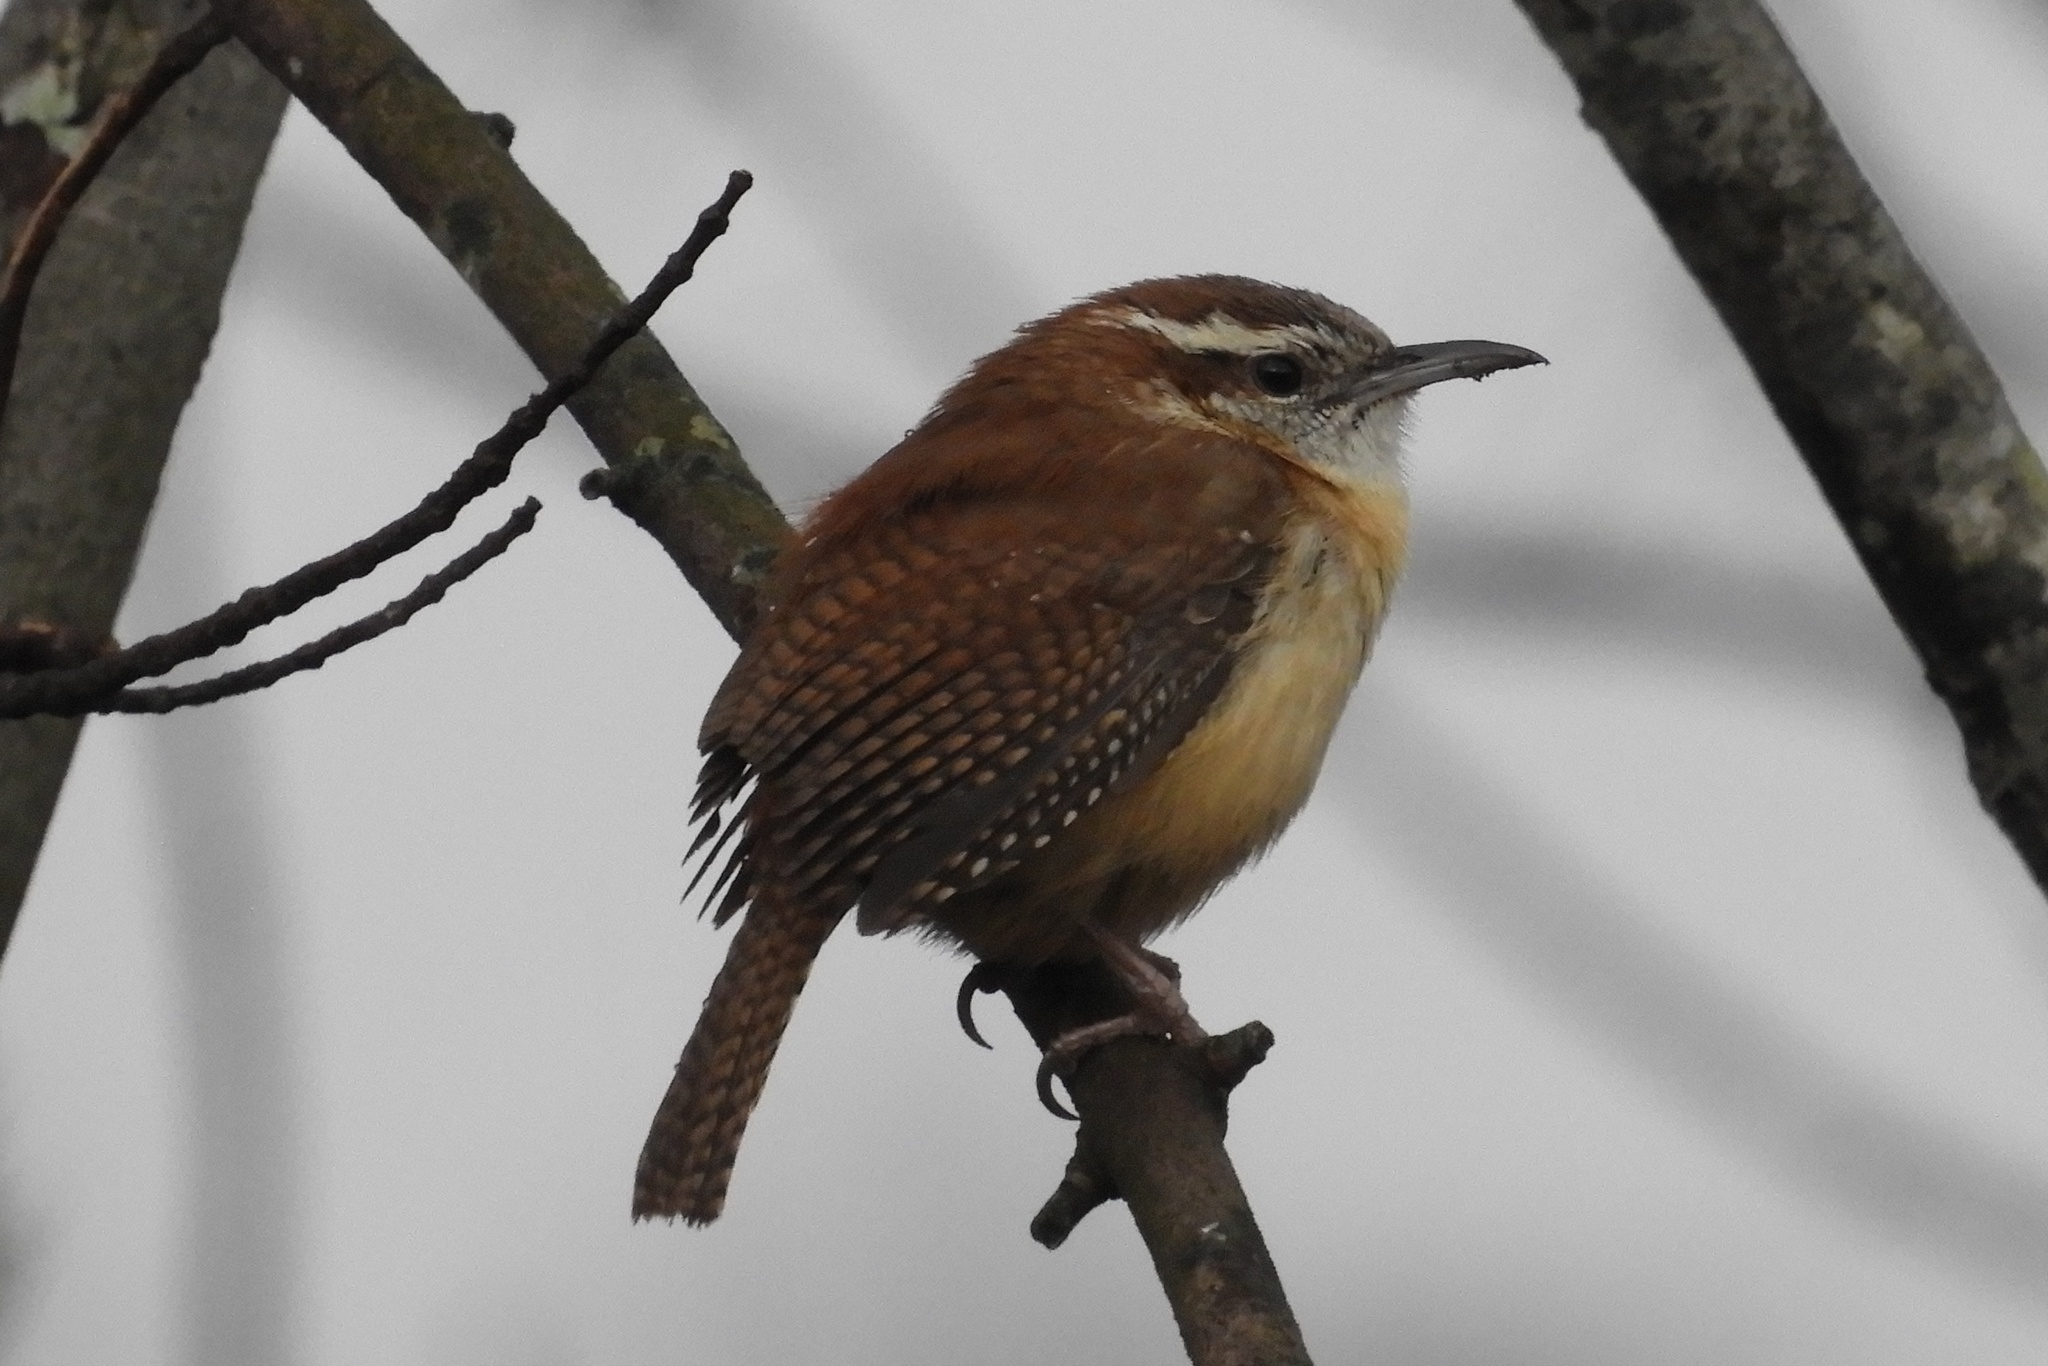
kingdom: Animalia
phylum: Chordata
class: Aves
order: Passeriformes
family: Troglodytidae
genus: Thryothorus
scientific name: Thryothorus ludovicianus
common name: Carolina wren
